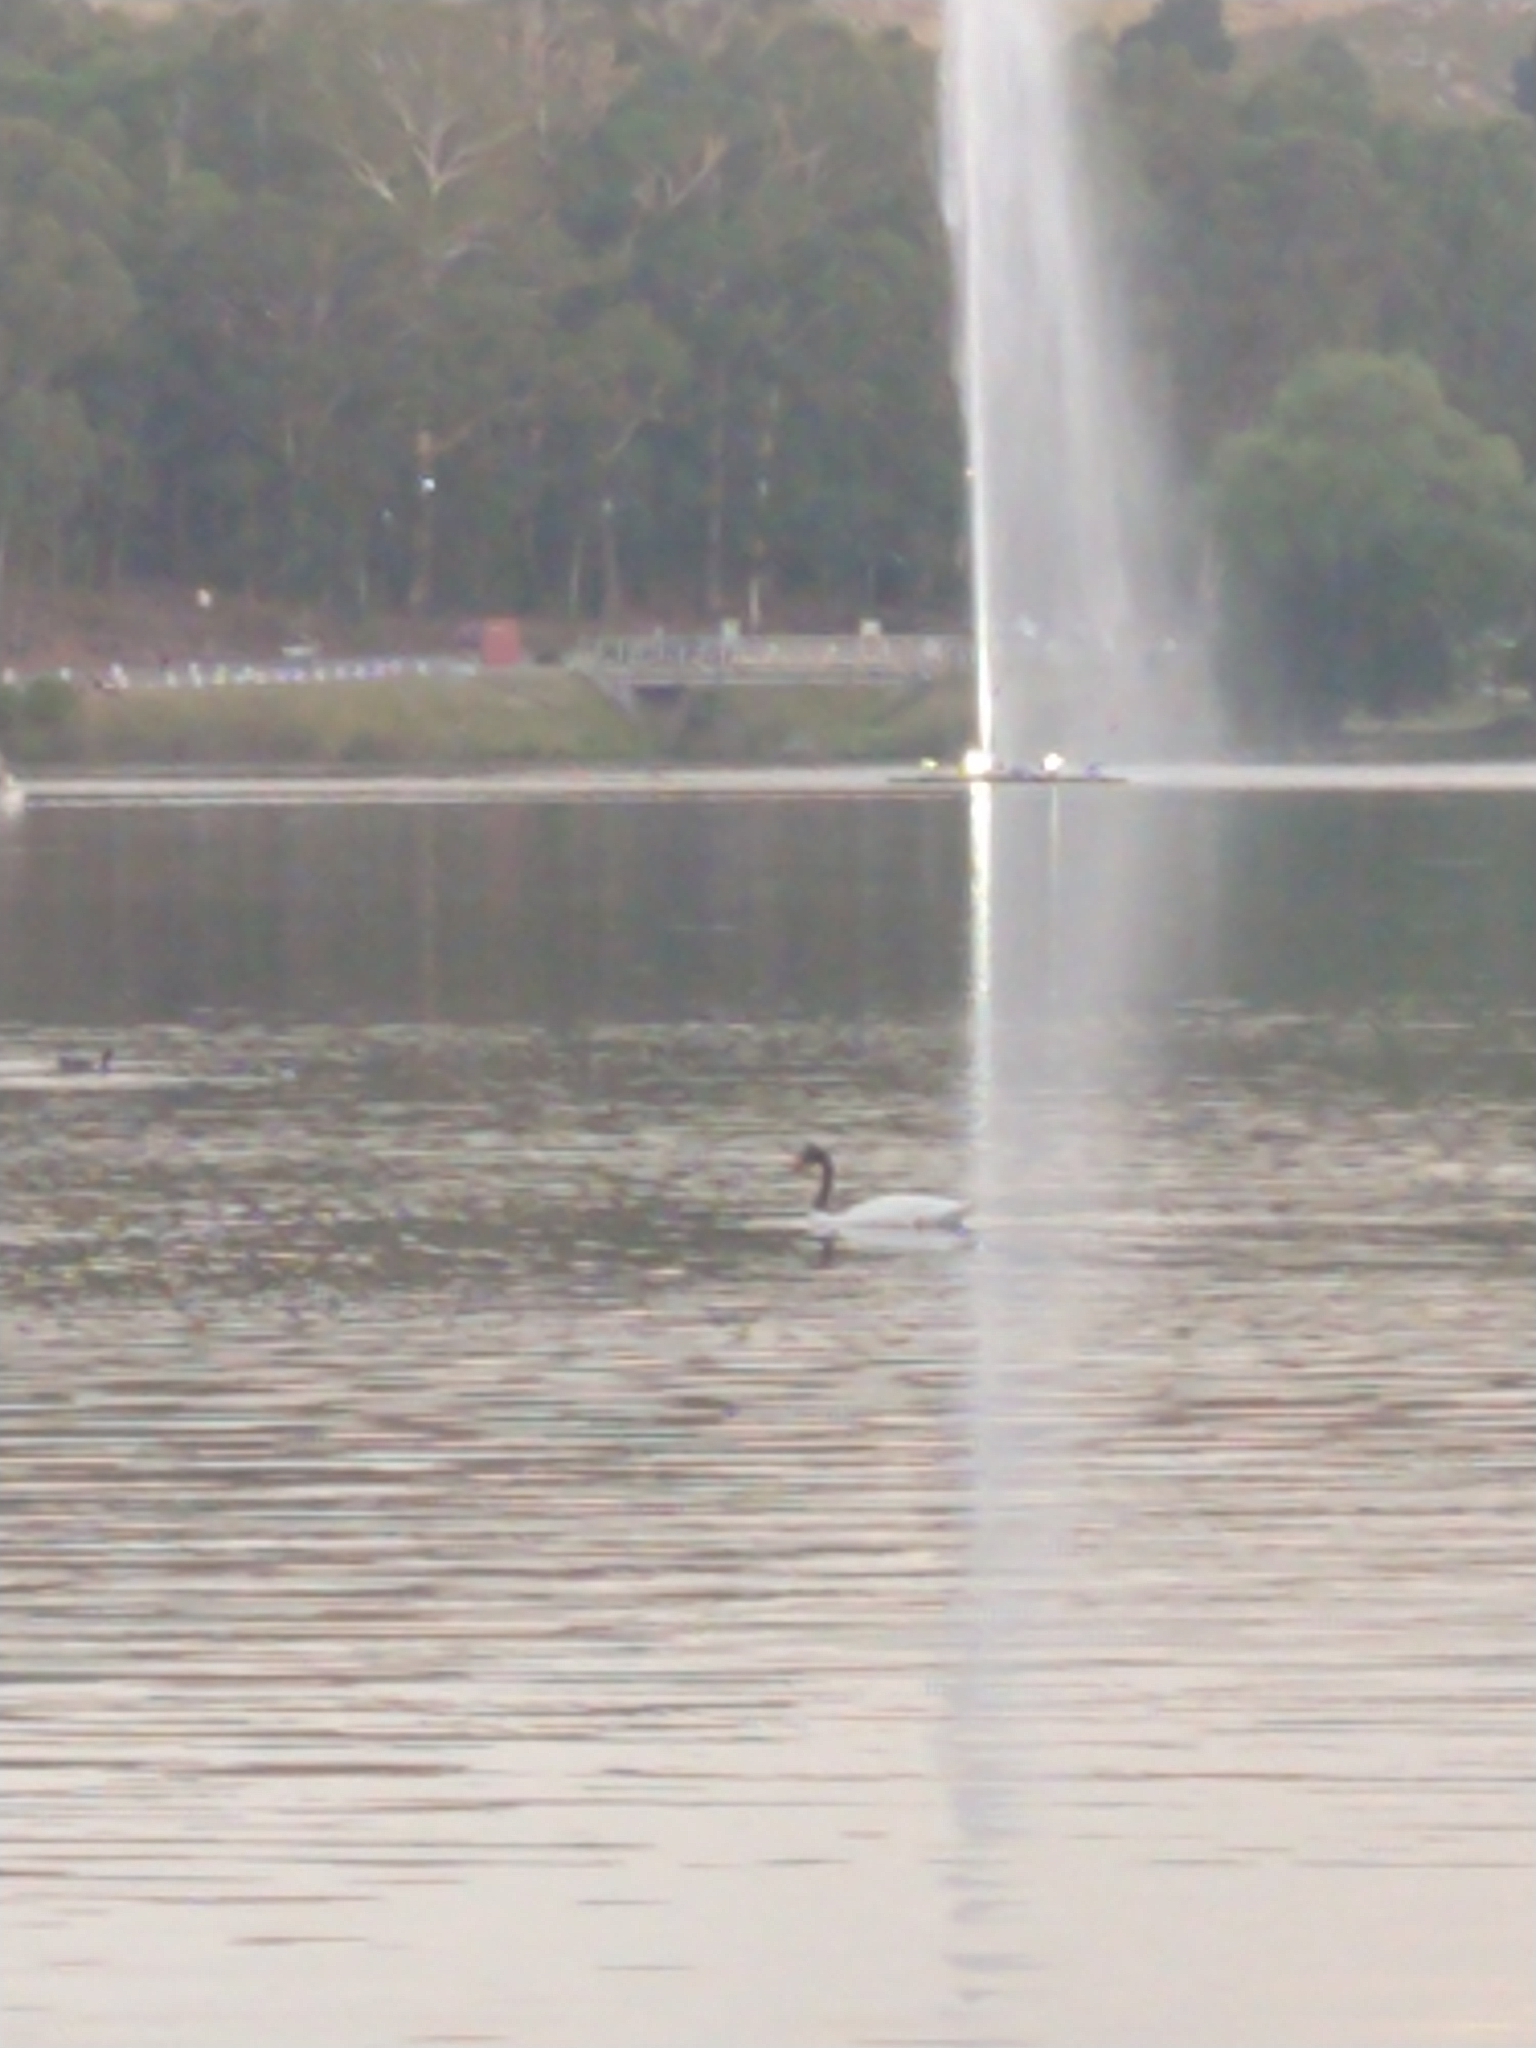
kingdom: Animalia
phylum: Chordata
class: Aves
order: Anseriformes
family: Anatidae
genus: Cygnus
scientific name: Cygnus melancoryphus
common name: Black-necked swan
